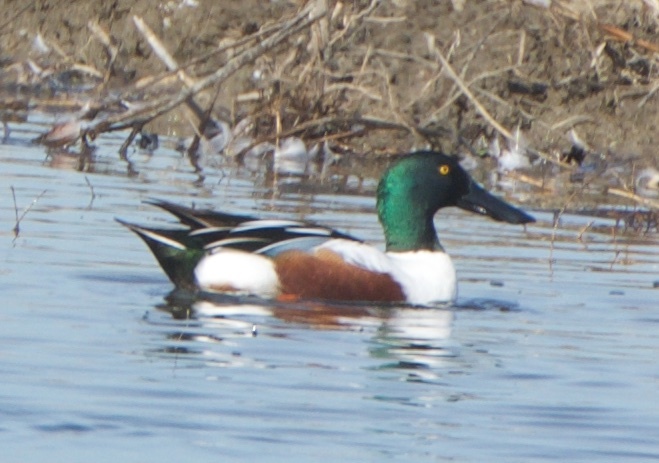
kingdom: Animalia
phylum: Chordata
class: Aves
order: Anseriformes
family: Anatidae
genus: Spatula
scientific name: Spatula clypeata
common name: Northern shoveler
